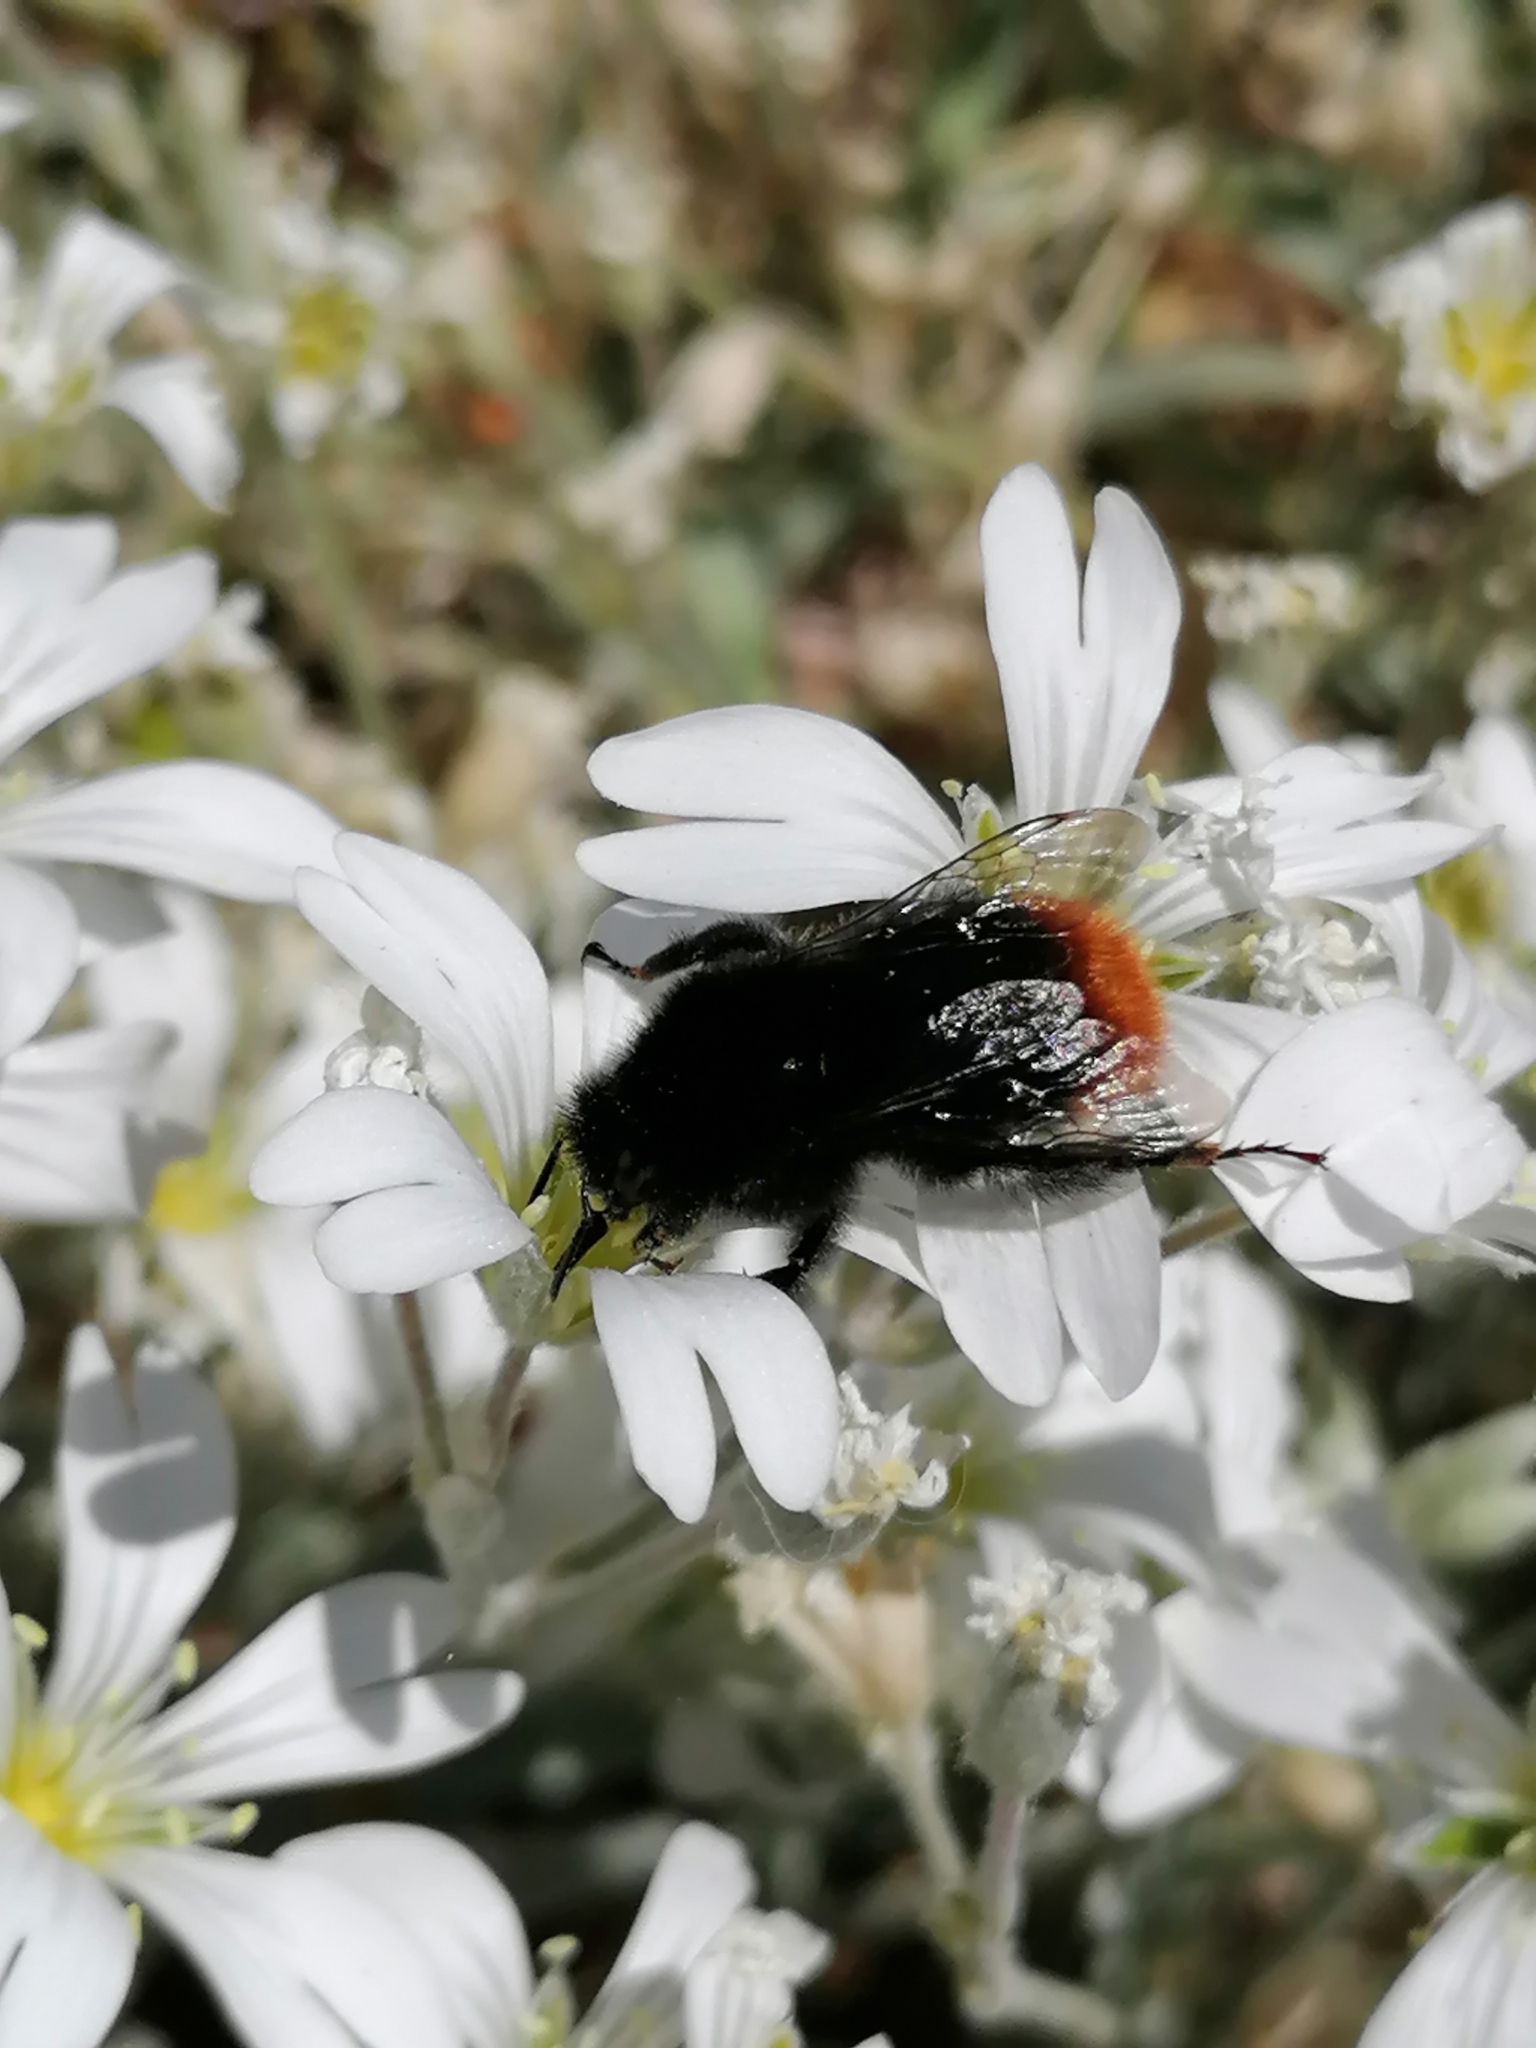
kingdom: Animalia
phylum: Arthropoda
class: Insecta
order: Hymenoptera
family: Apidae
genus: Bombus
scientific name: Bombus lapidarius
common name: Large red-tailed humble-bee
